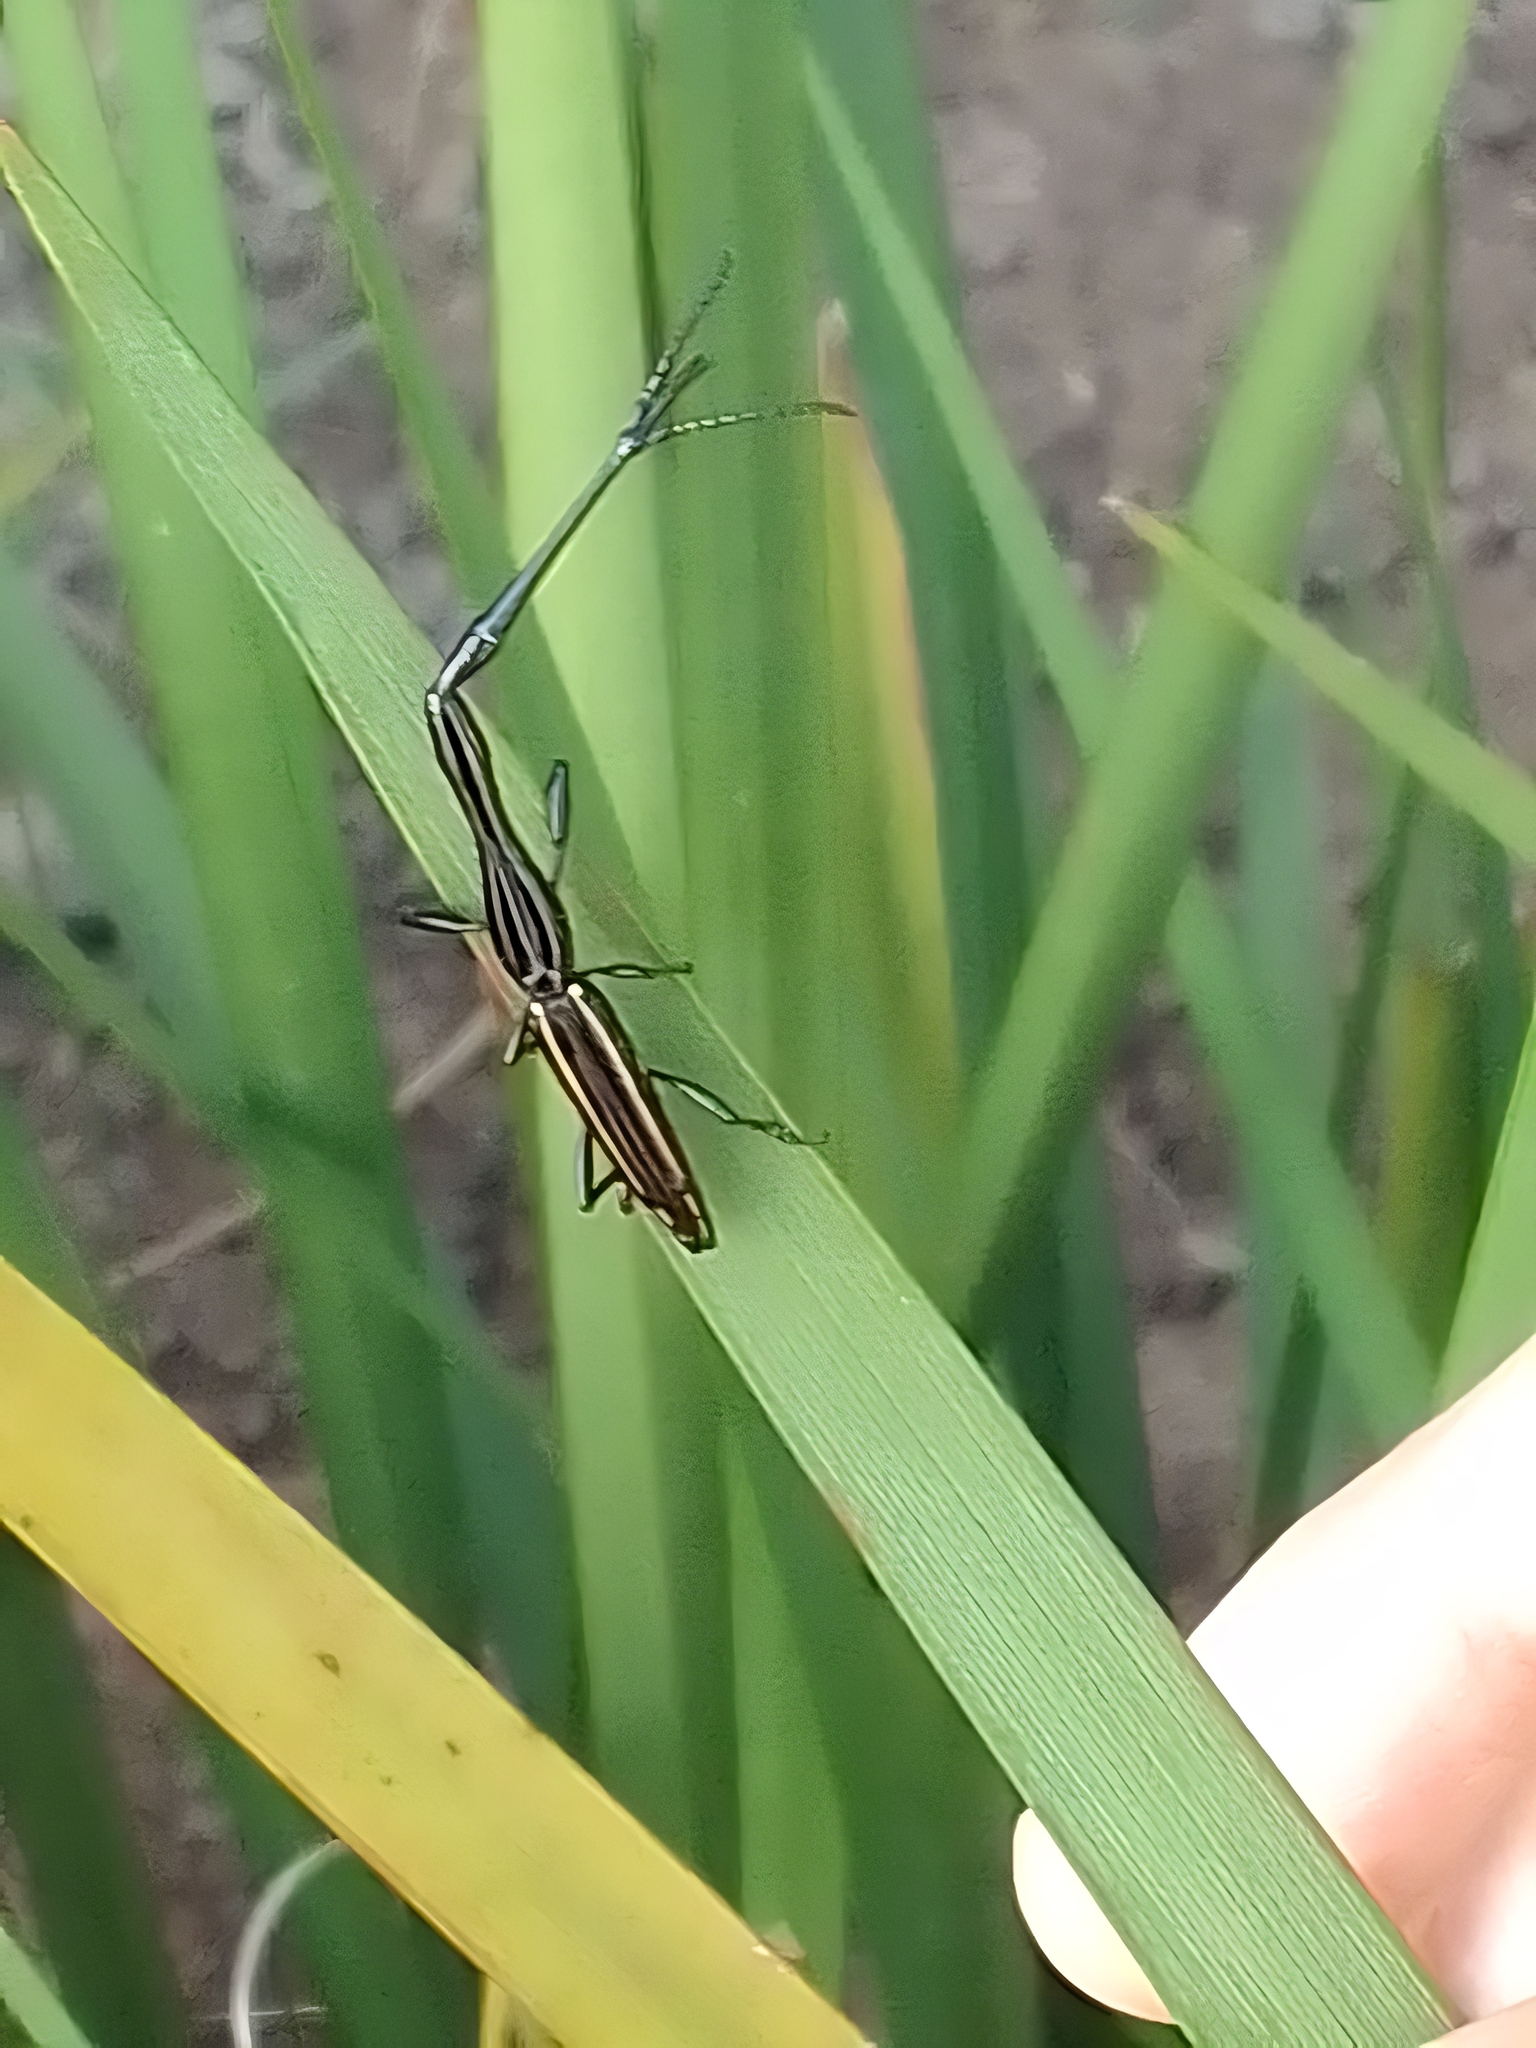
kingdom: Animalia
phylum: Arthropoda
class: Insecta
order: Coleoptera
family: Brentidae
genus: Brentus
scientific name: Brentus anchorago
